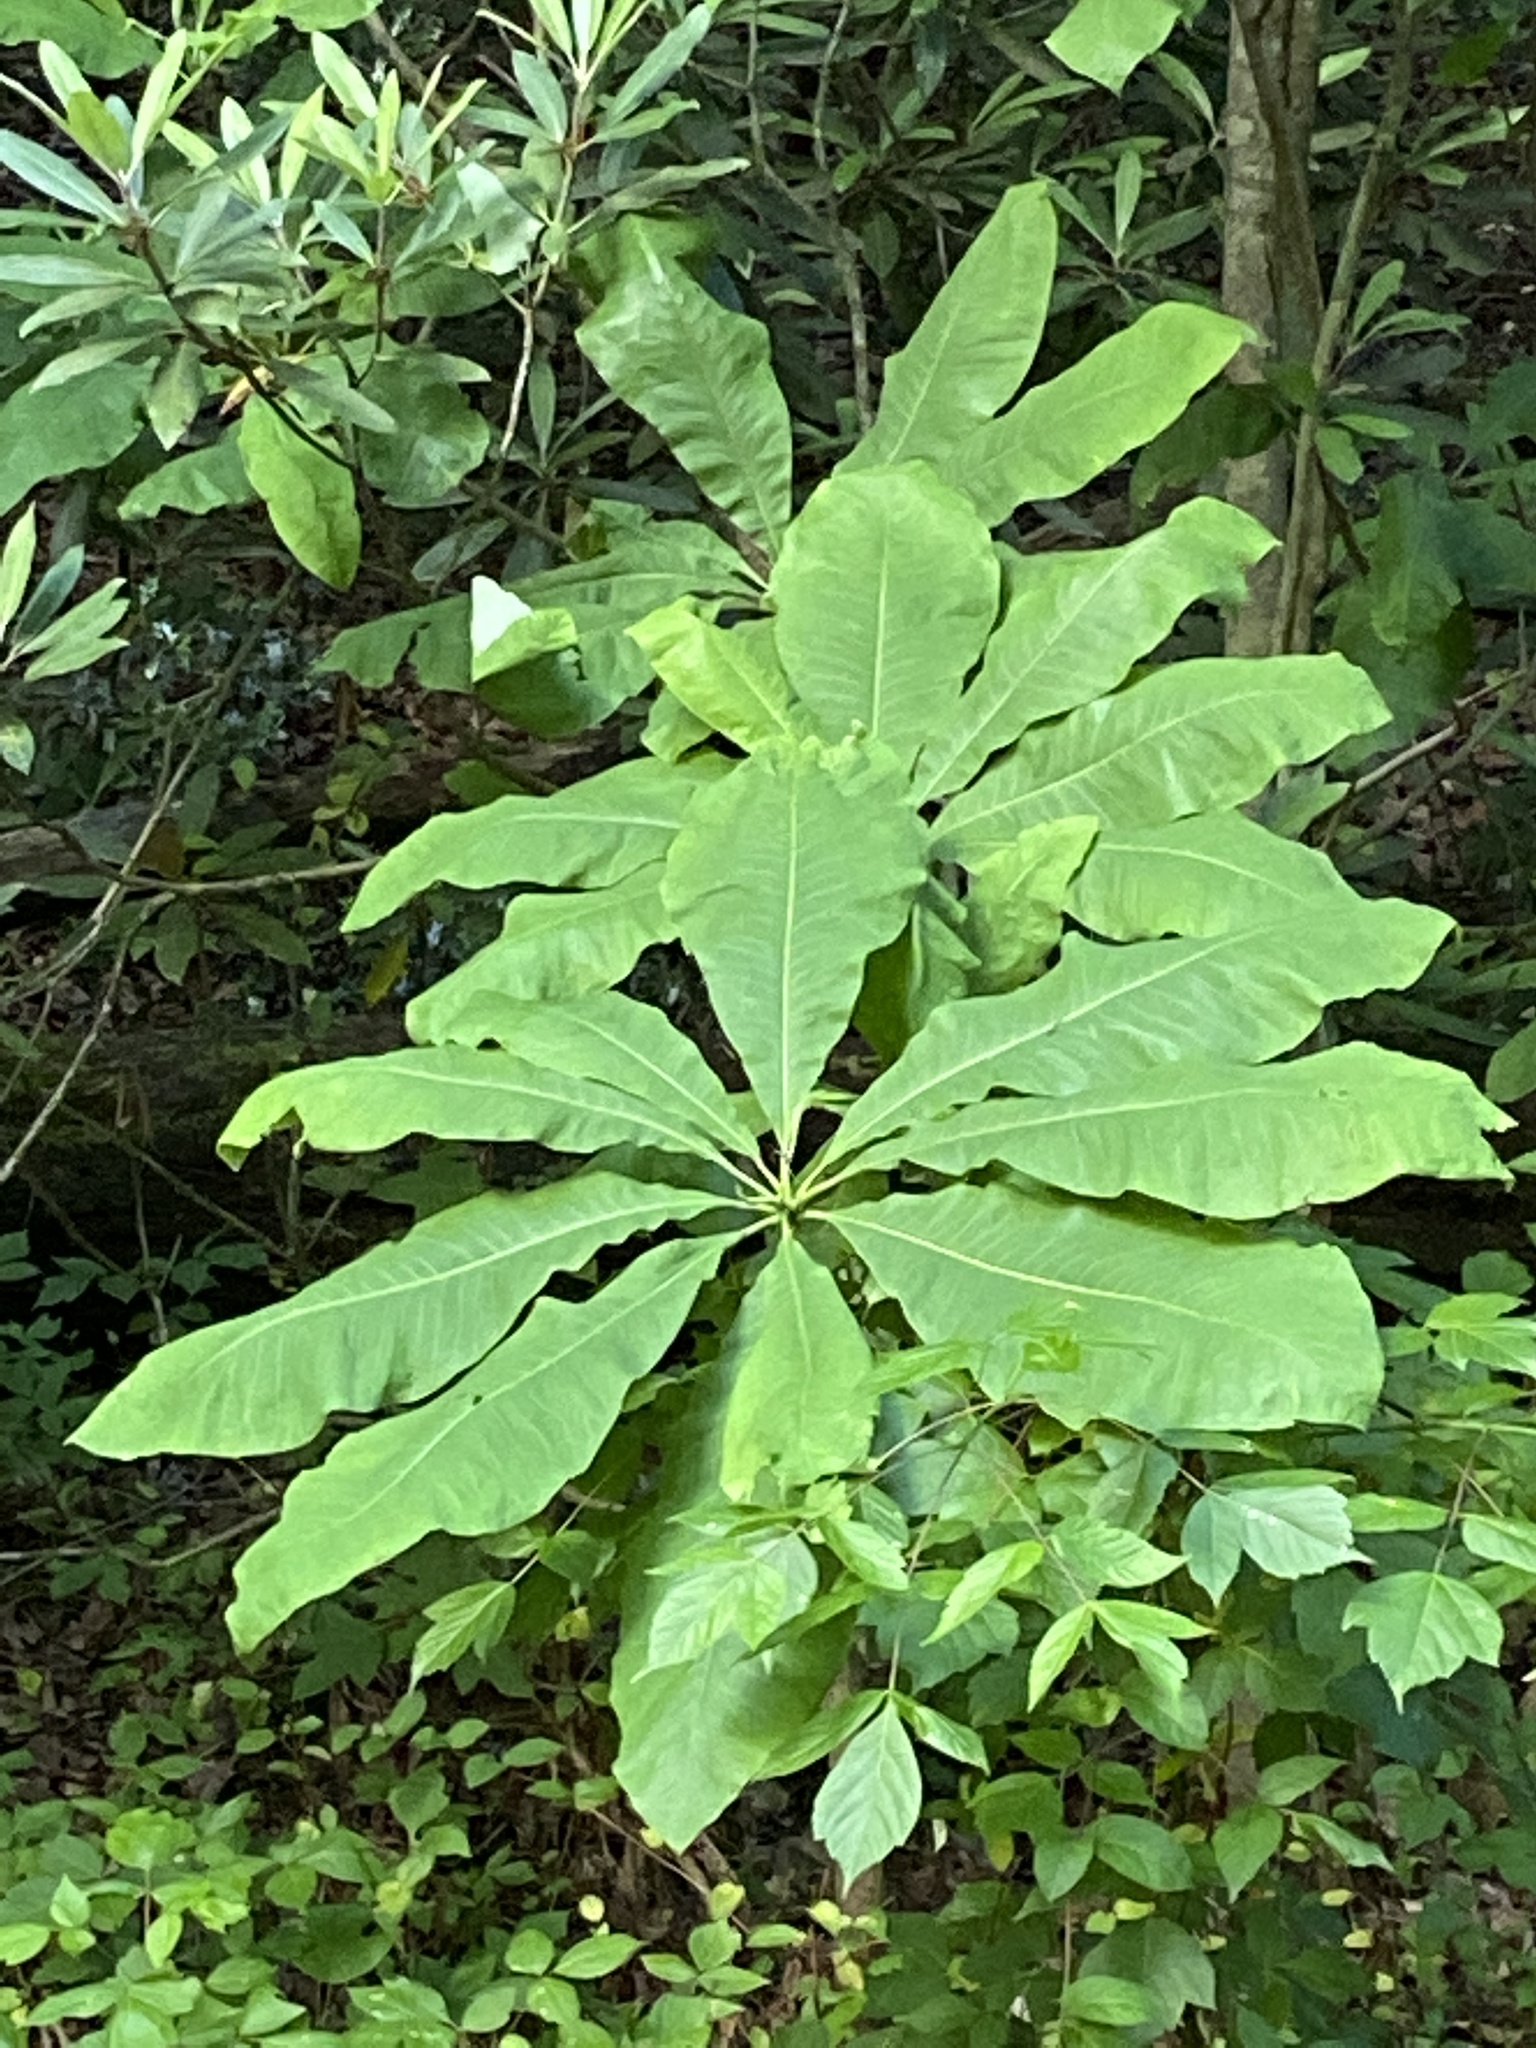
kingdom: Plantae
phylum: Tracheophyta
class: Magnoliopsida
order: Magnoliales
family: Magnoliaceae
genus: Magnolia
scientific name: Magnolia tripetala
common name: Umbrella magnolia
